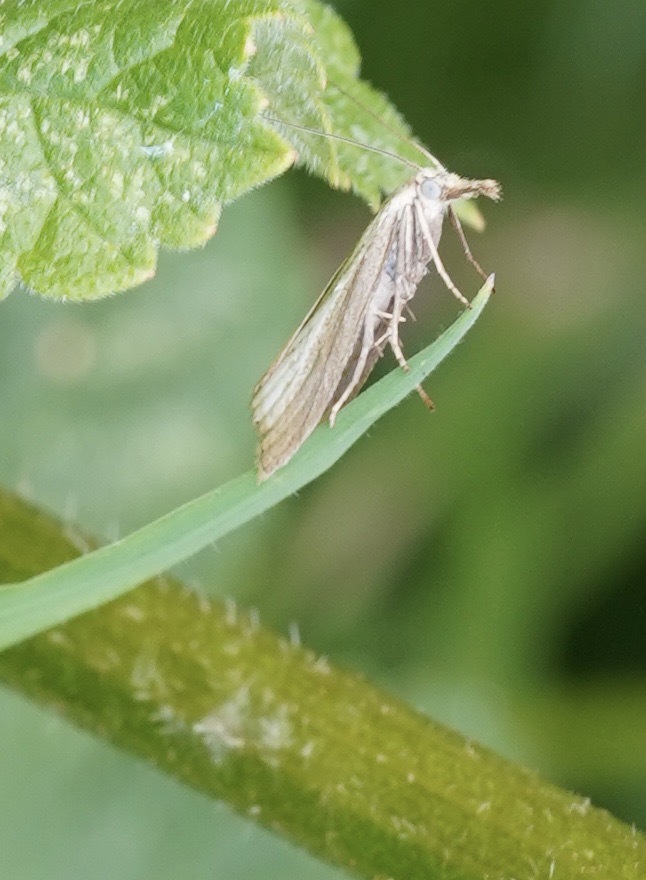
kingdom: Animalia
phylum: Arthropoda
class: Insecta
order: Lepidoptera
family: Crambidae
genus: Agriphila
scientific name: Agriphila straminella
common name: Straw grass-veneer
